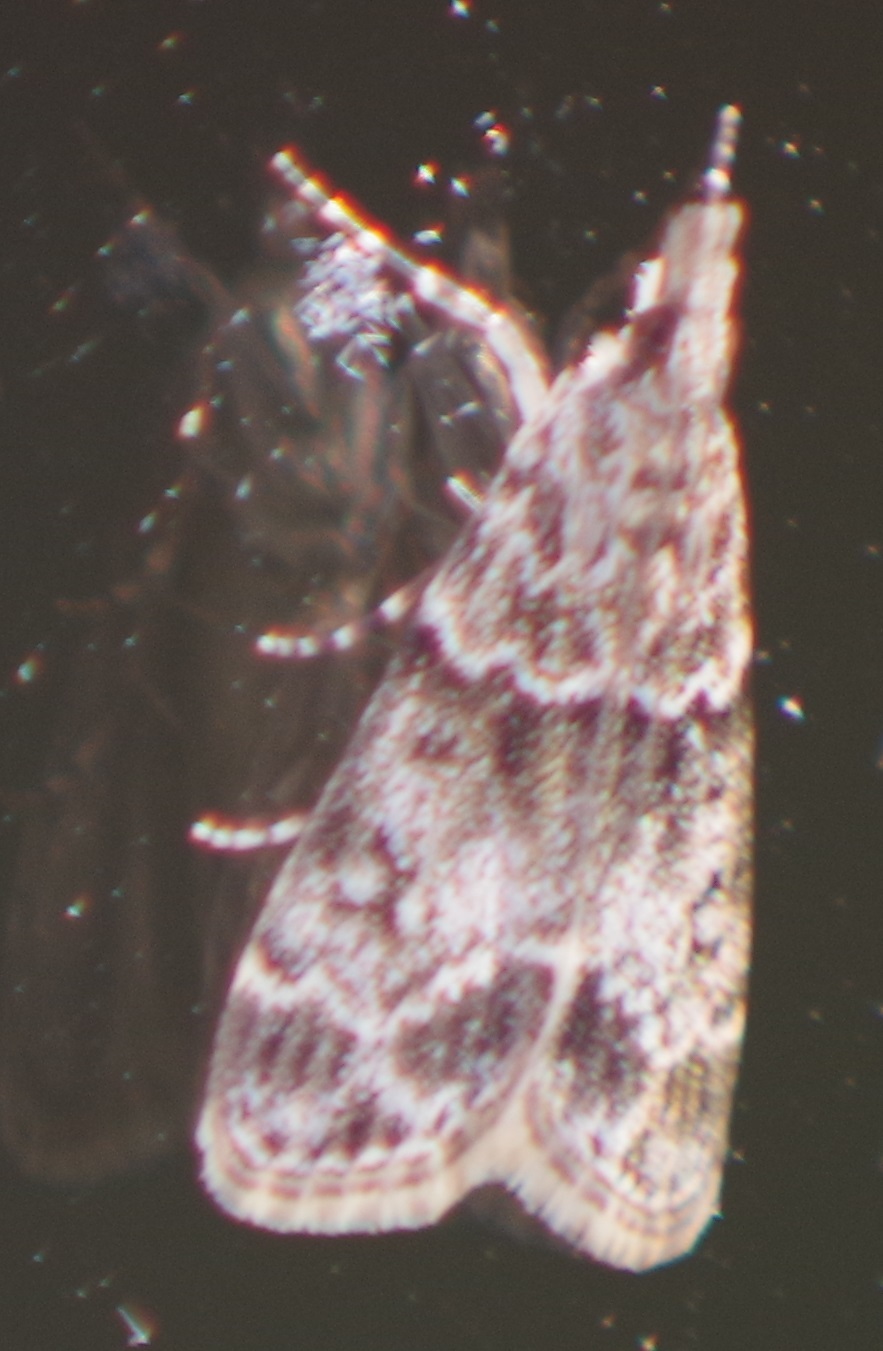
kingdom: Animalia
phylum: Arthropoda
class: Insecta
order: Lepidoptera
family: Crambidae
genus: Eudonia
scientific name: Eudonia mercurella
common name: Small grey
